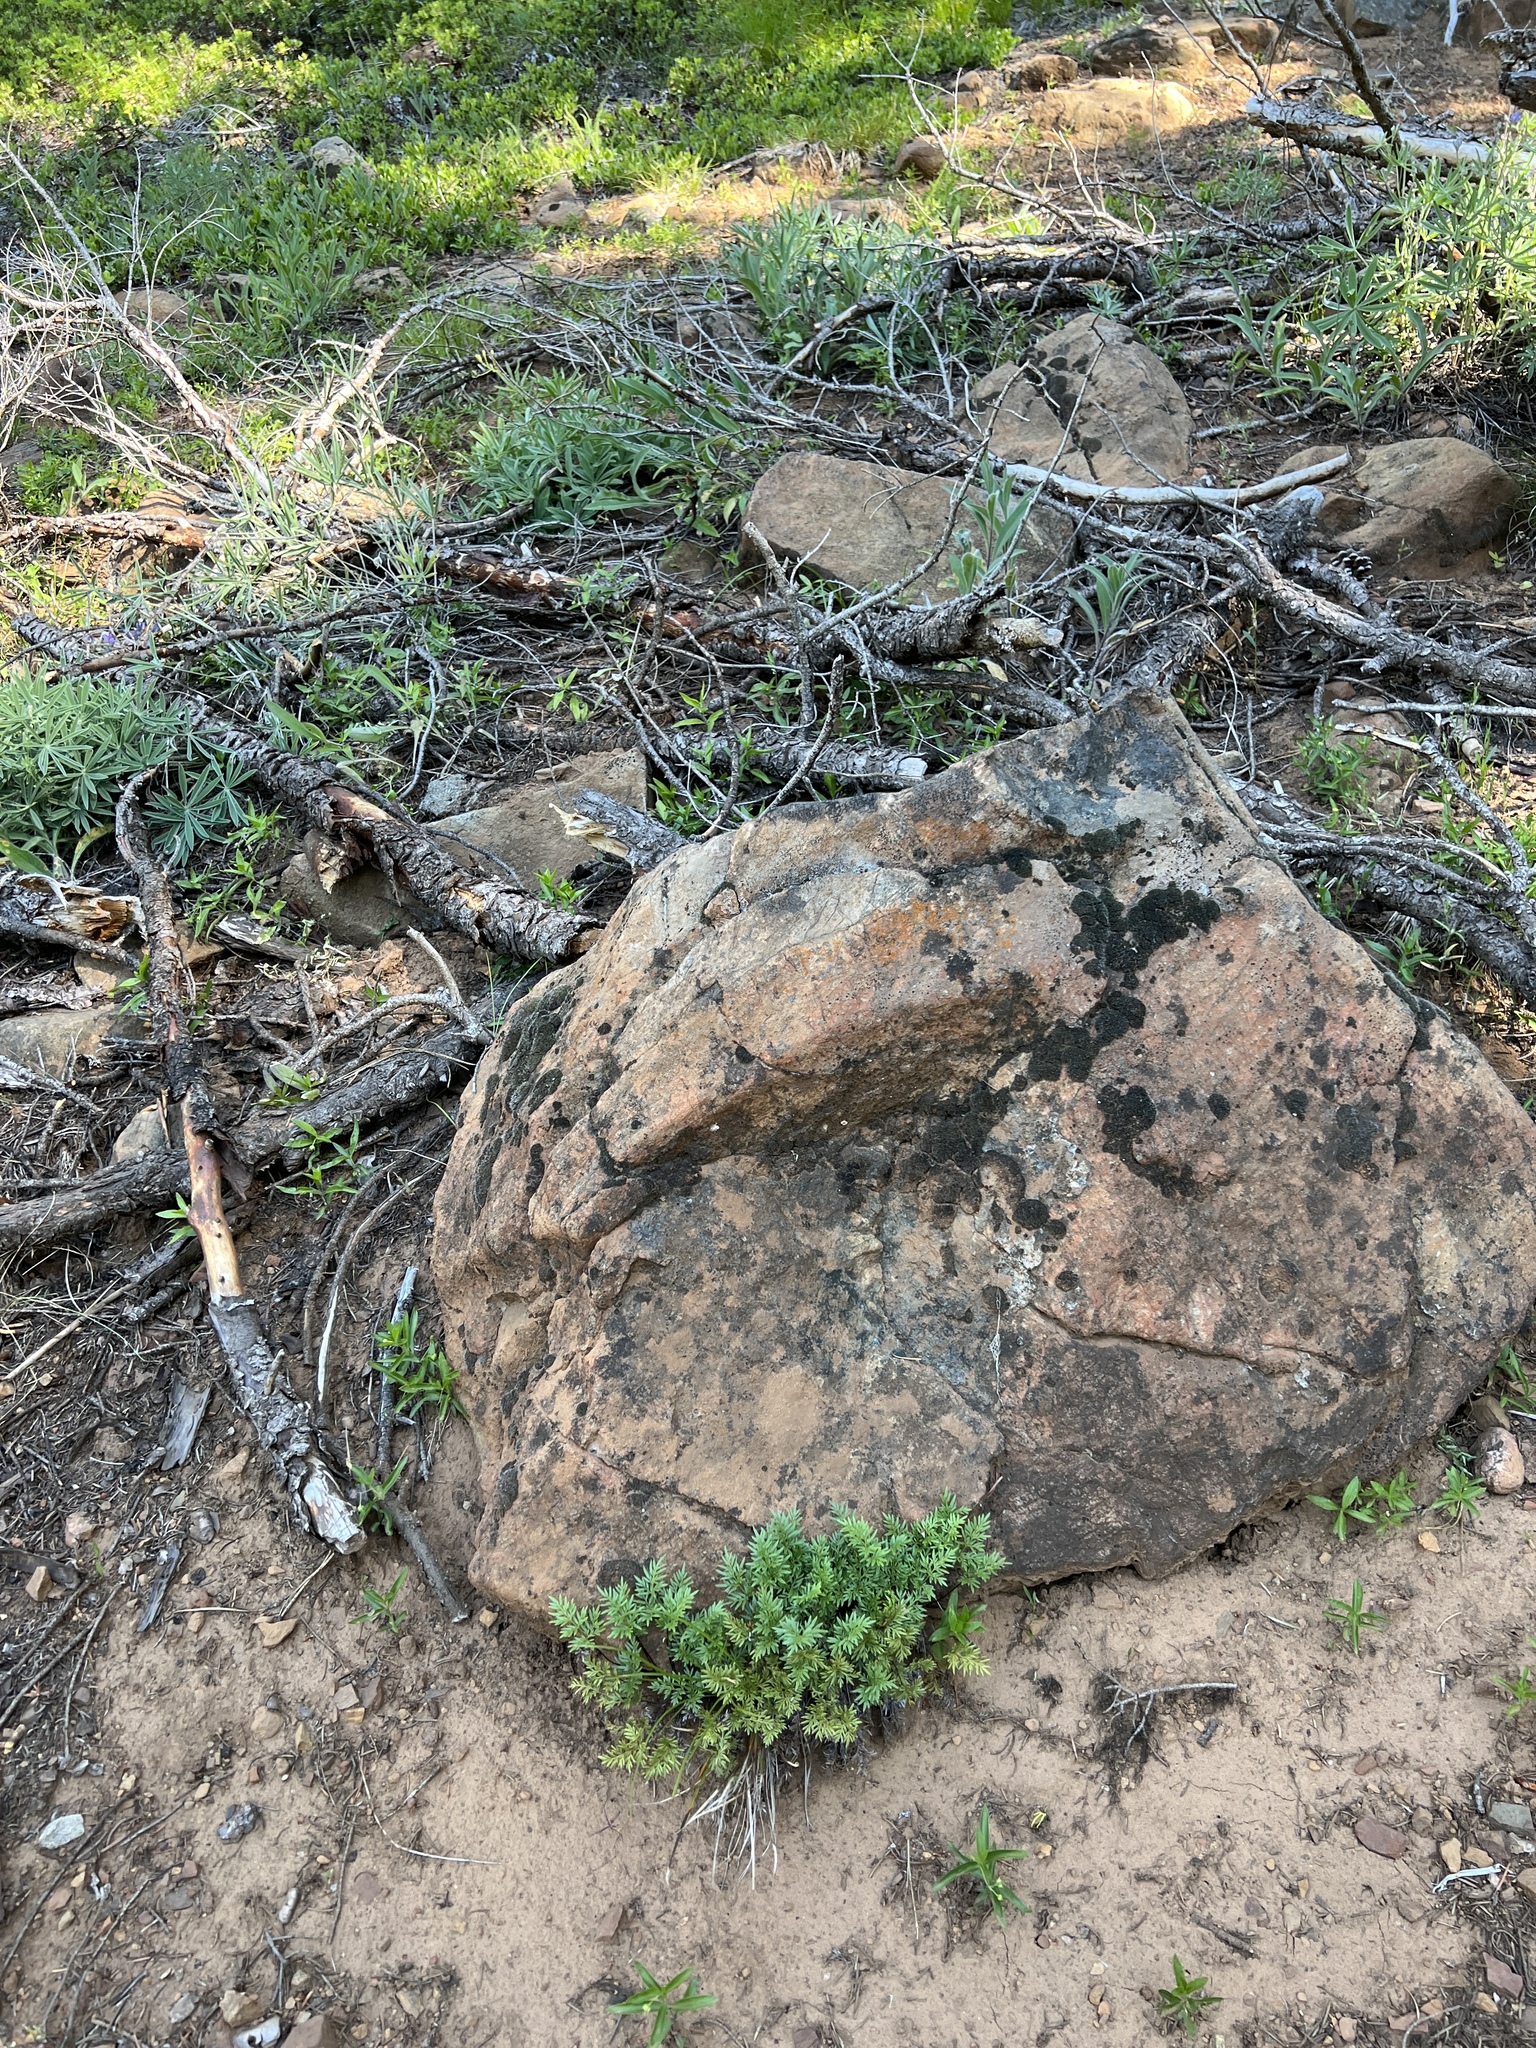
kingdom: Plantae
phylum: Tracheophyta
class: Polypodiopsida
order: Polypodiales
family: Pteridaceae
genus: Aspidotis
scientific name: Aspidotis densa
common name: Indian's dream
